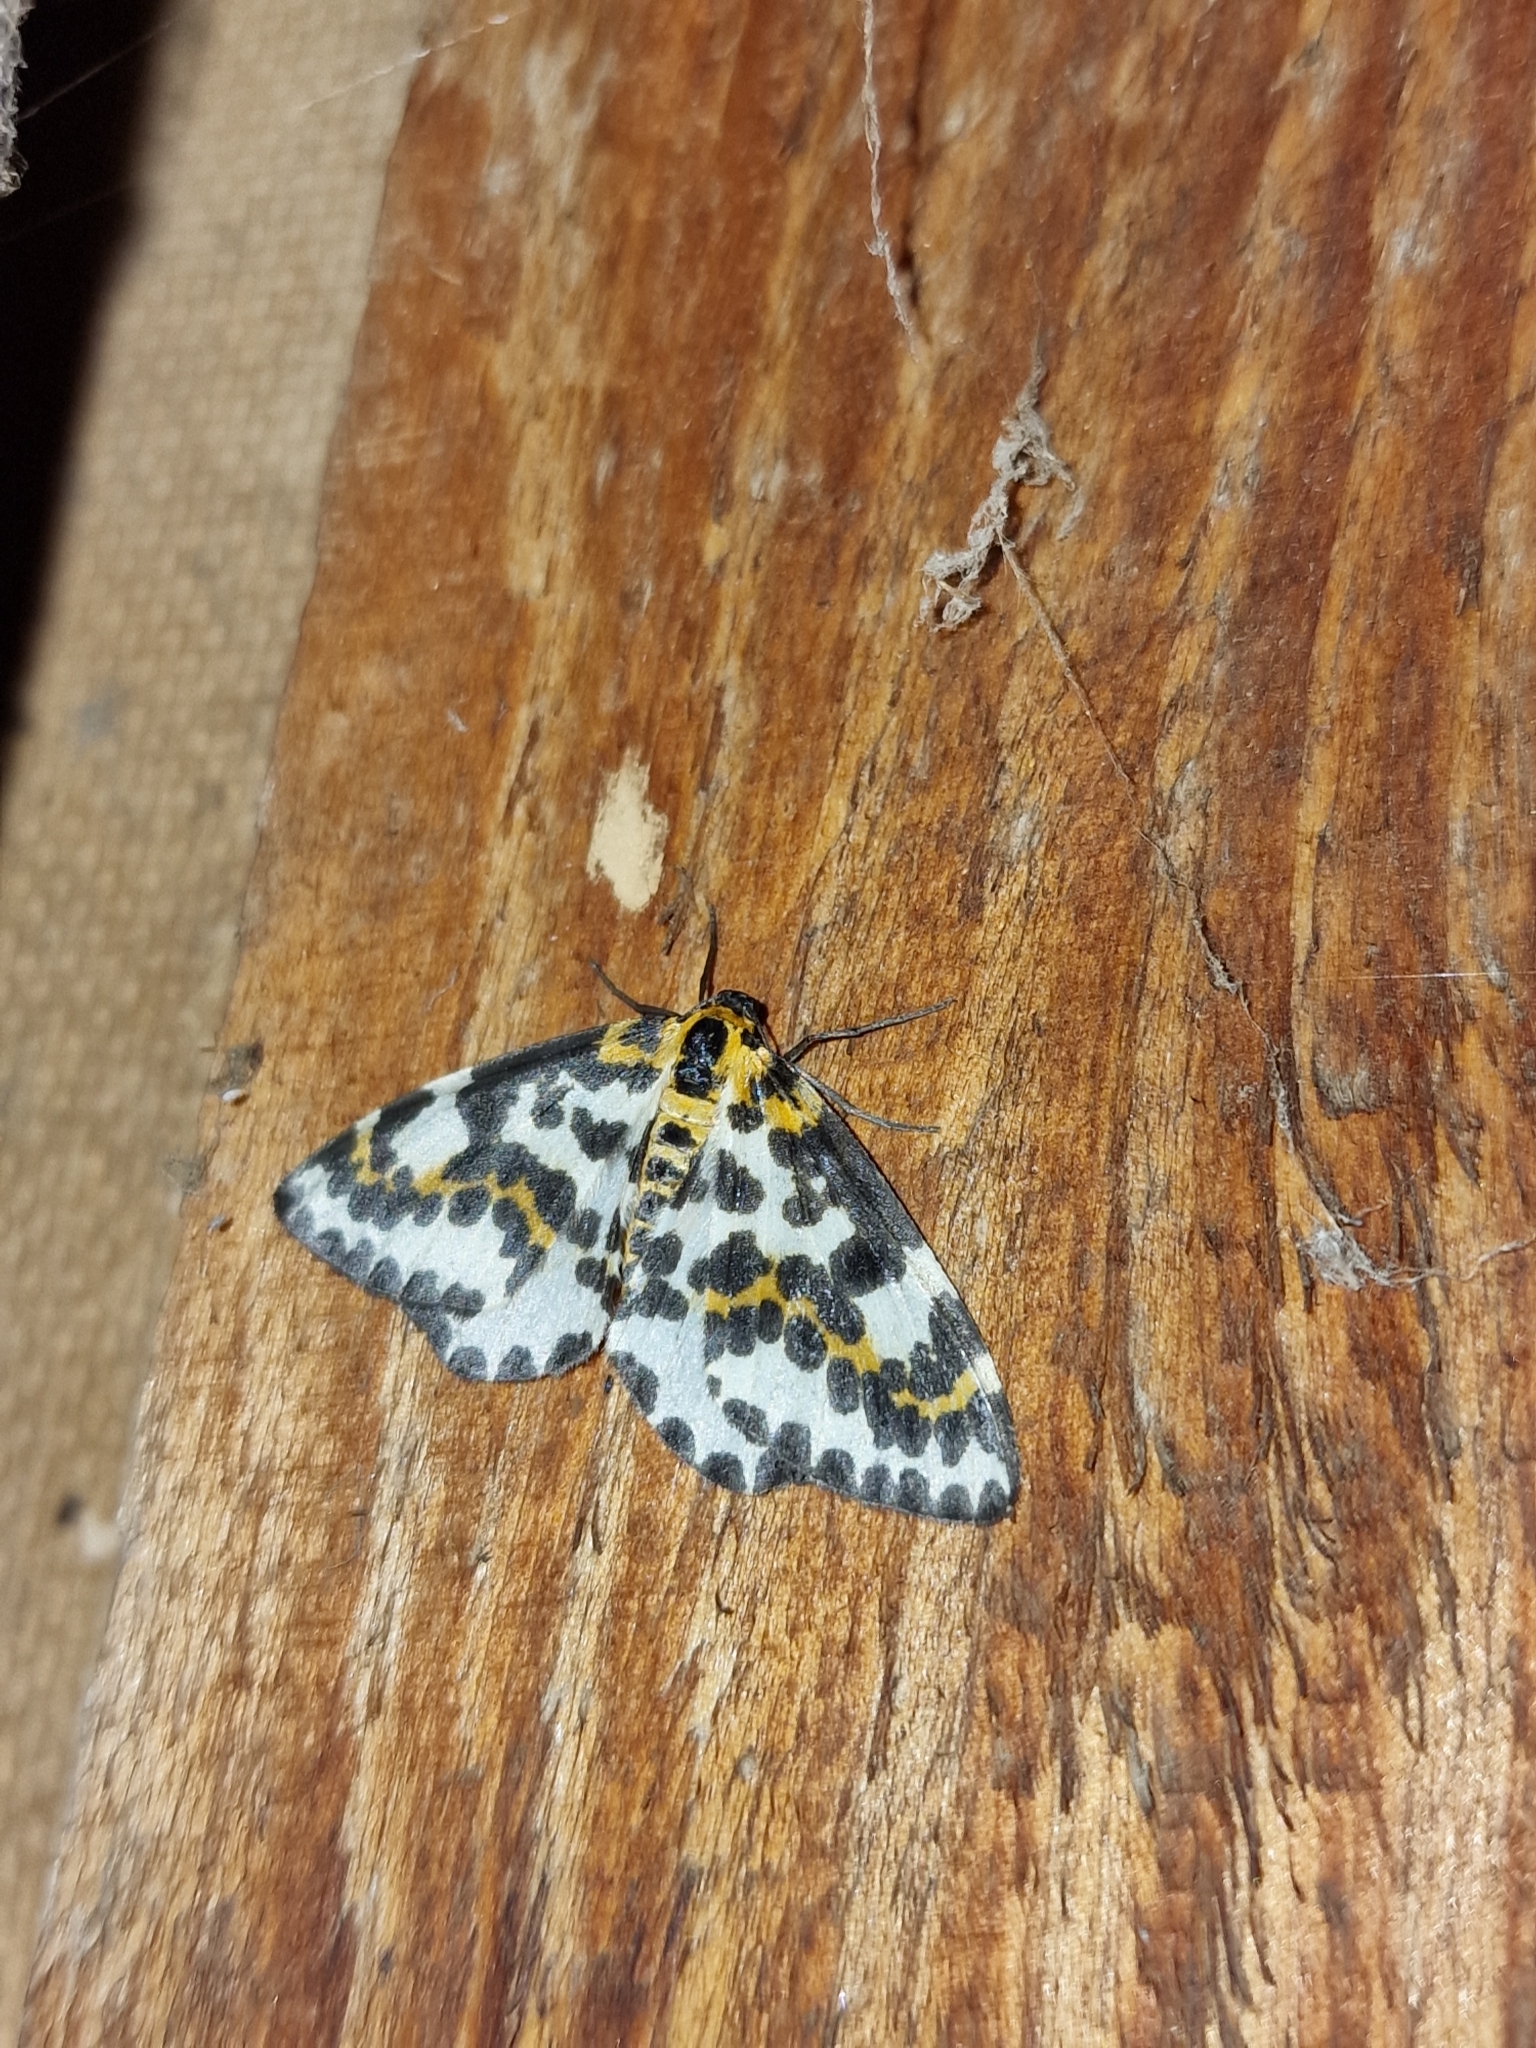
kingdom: Animalia
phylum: Arthropoda
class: Insecta
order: Lepidoptera
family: Geometridae
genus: Abraxas
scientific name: Abraxas grossulariata
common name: Magpie
